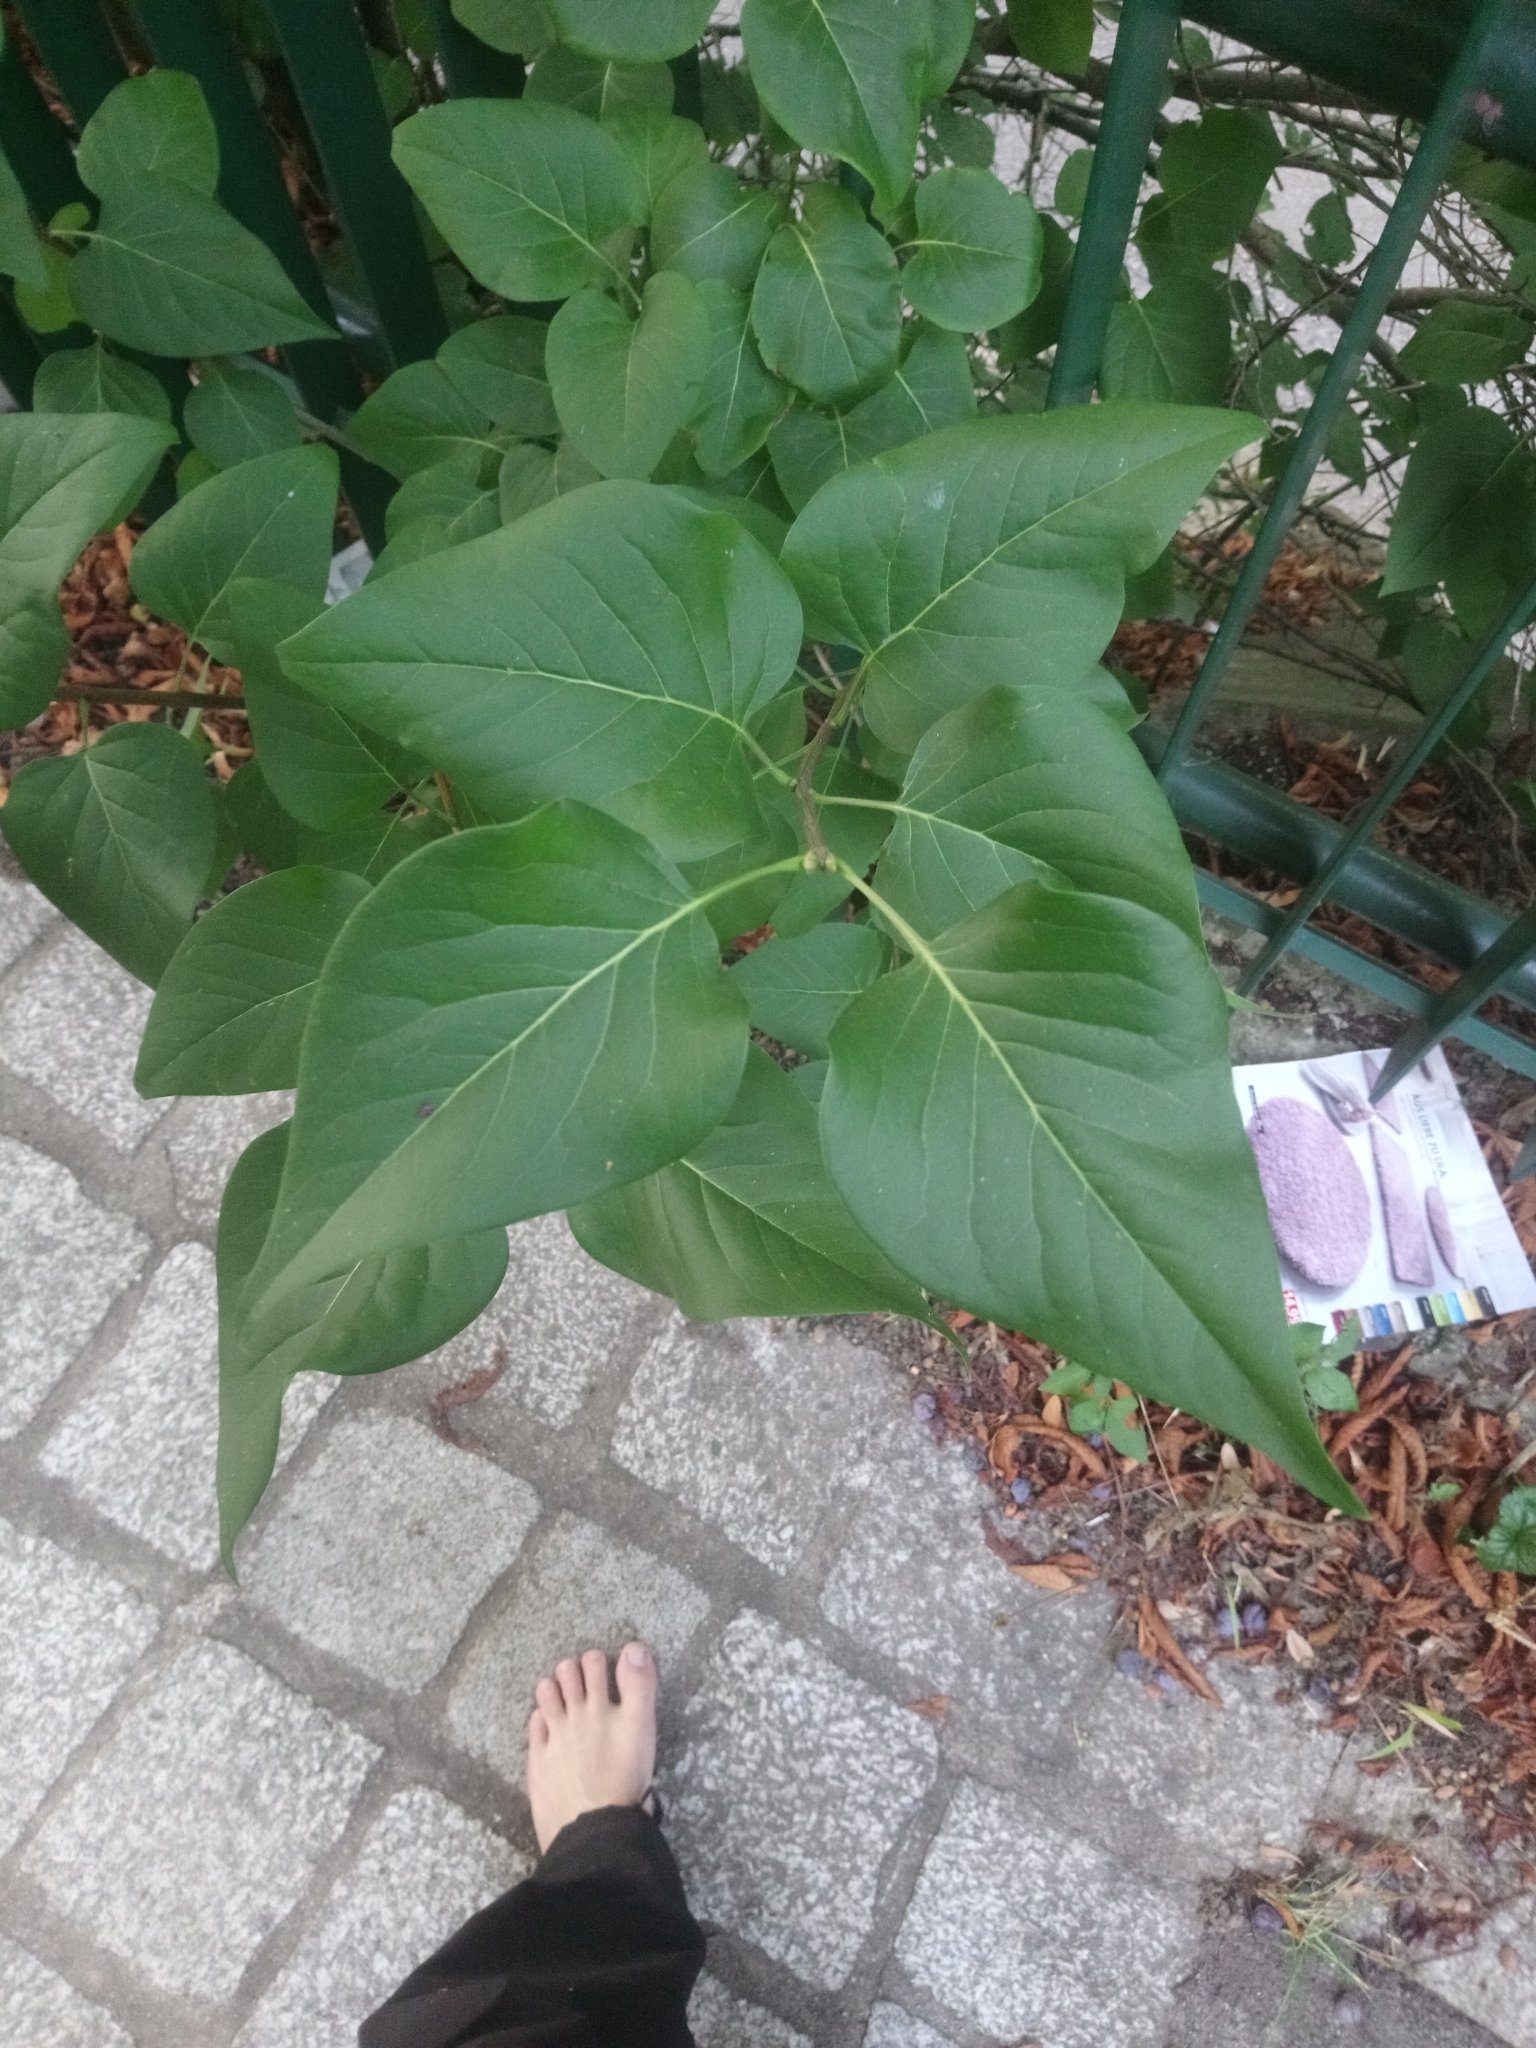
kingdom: Plantae
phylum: Tracheophyta
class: Magnoliopsida
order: Lamiales
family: Oleaceae
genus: Syringa
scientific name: Syringa vulgaris
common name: Common lilac
